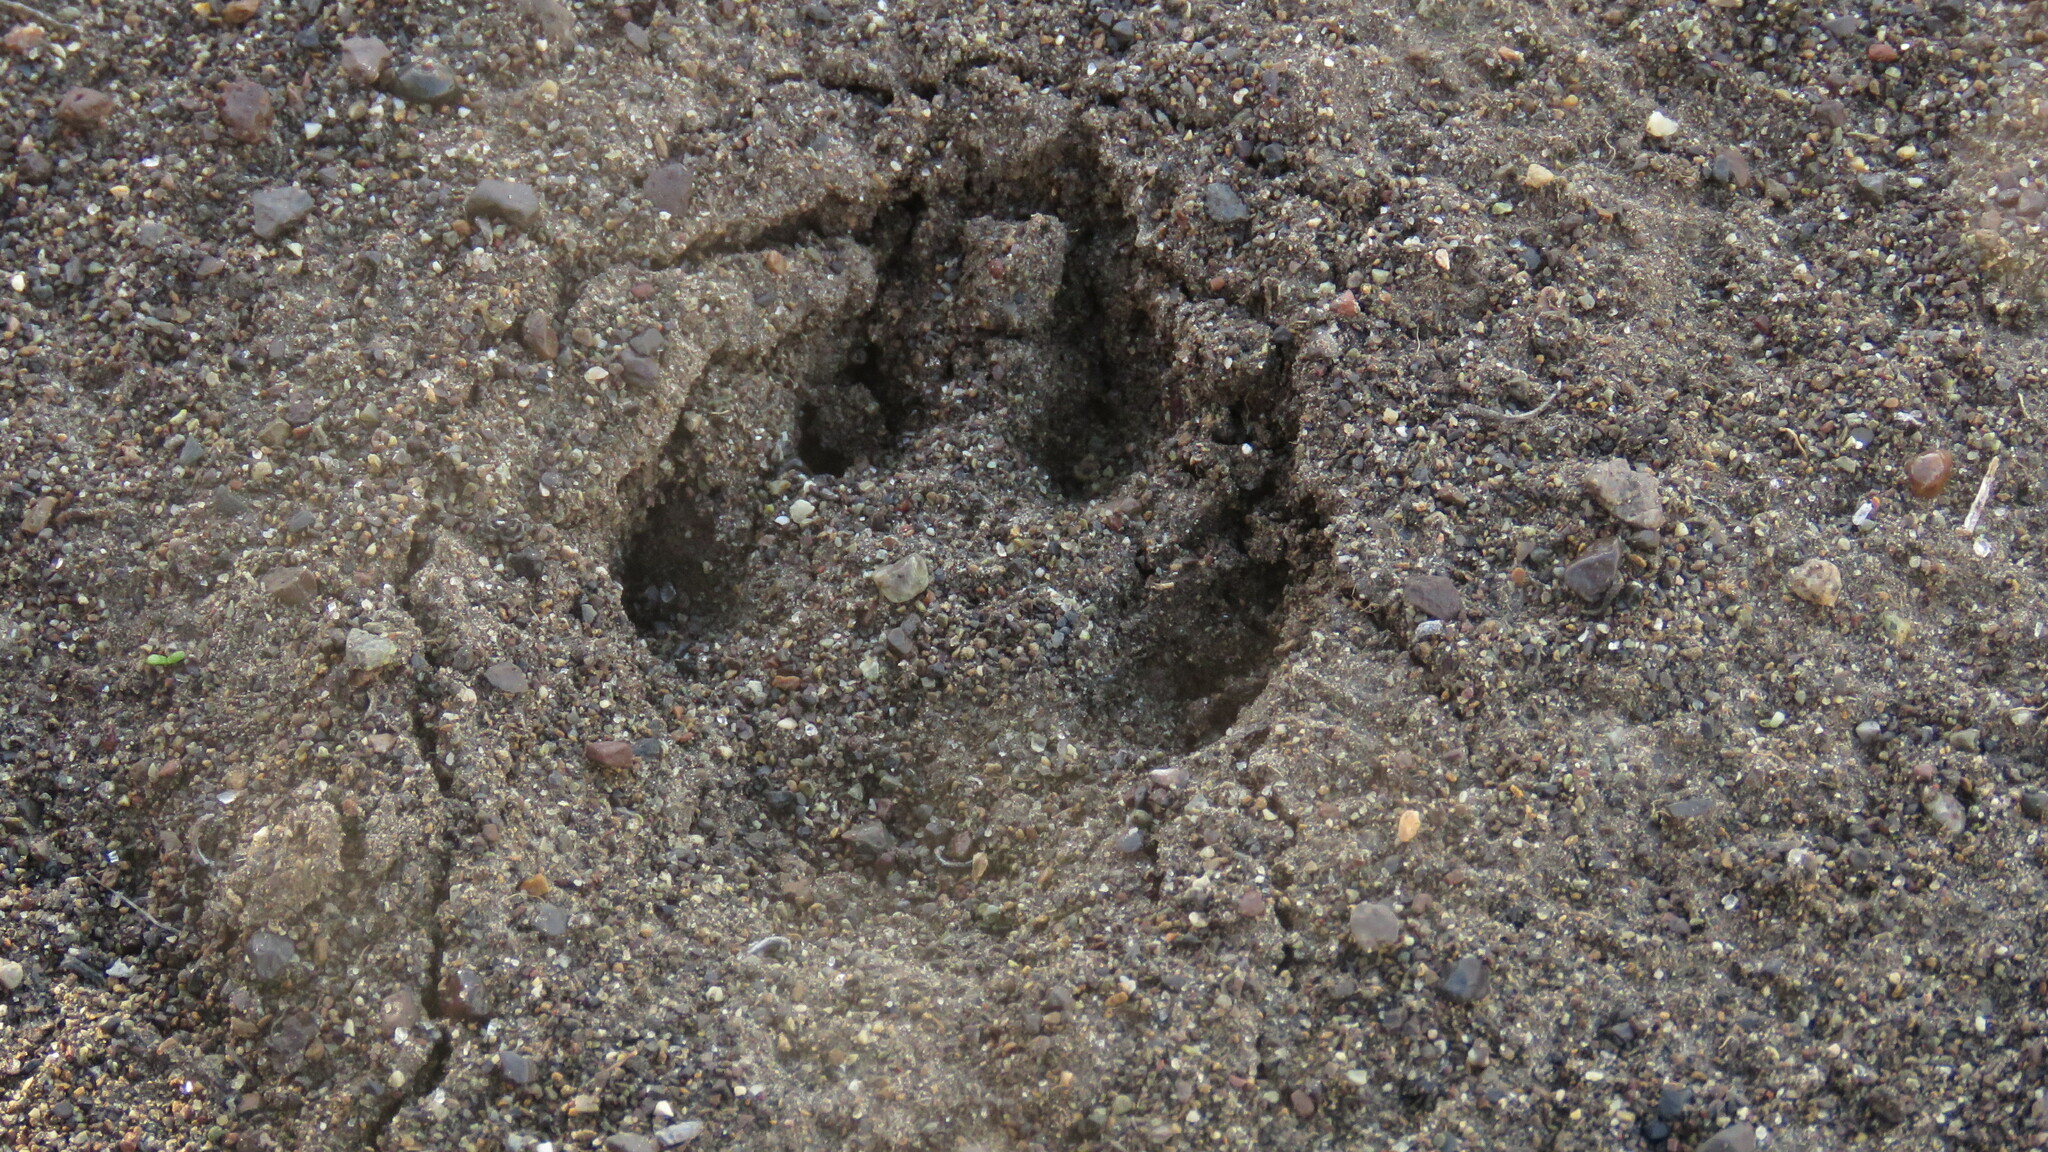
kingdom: Animalia
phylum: Chordata
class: Mammalia
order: Carnivora
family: Canidae
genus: Lycalopex
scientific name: Lycalopex culpaeus
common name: Culpeo
